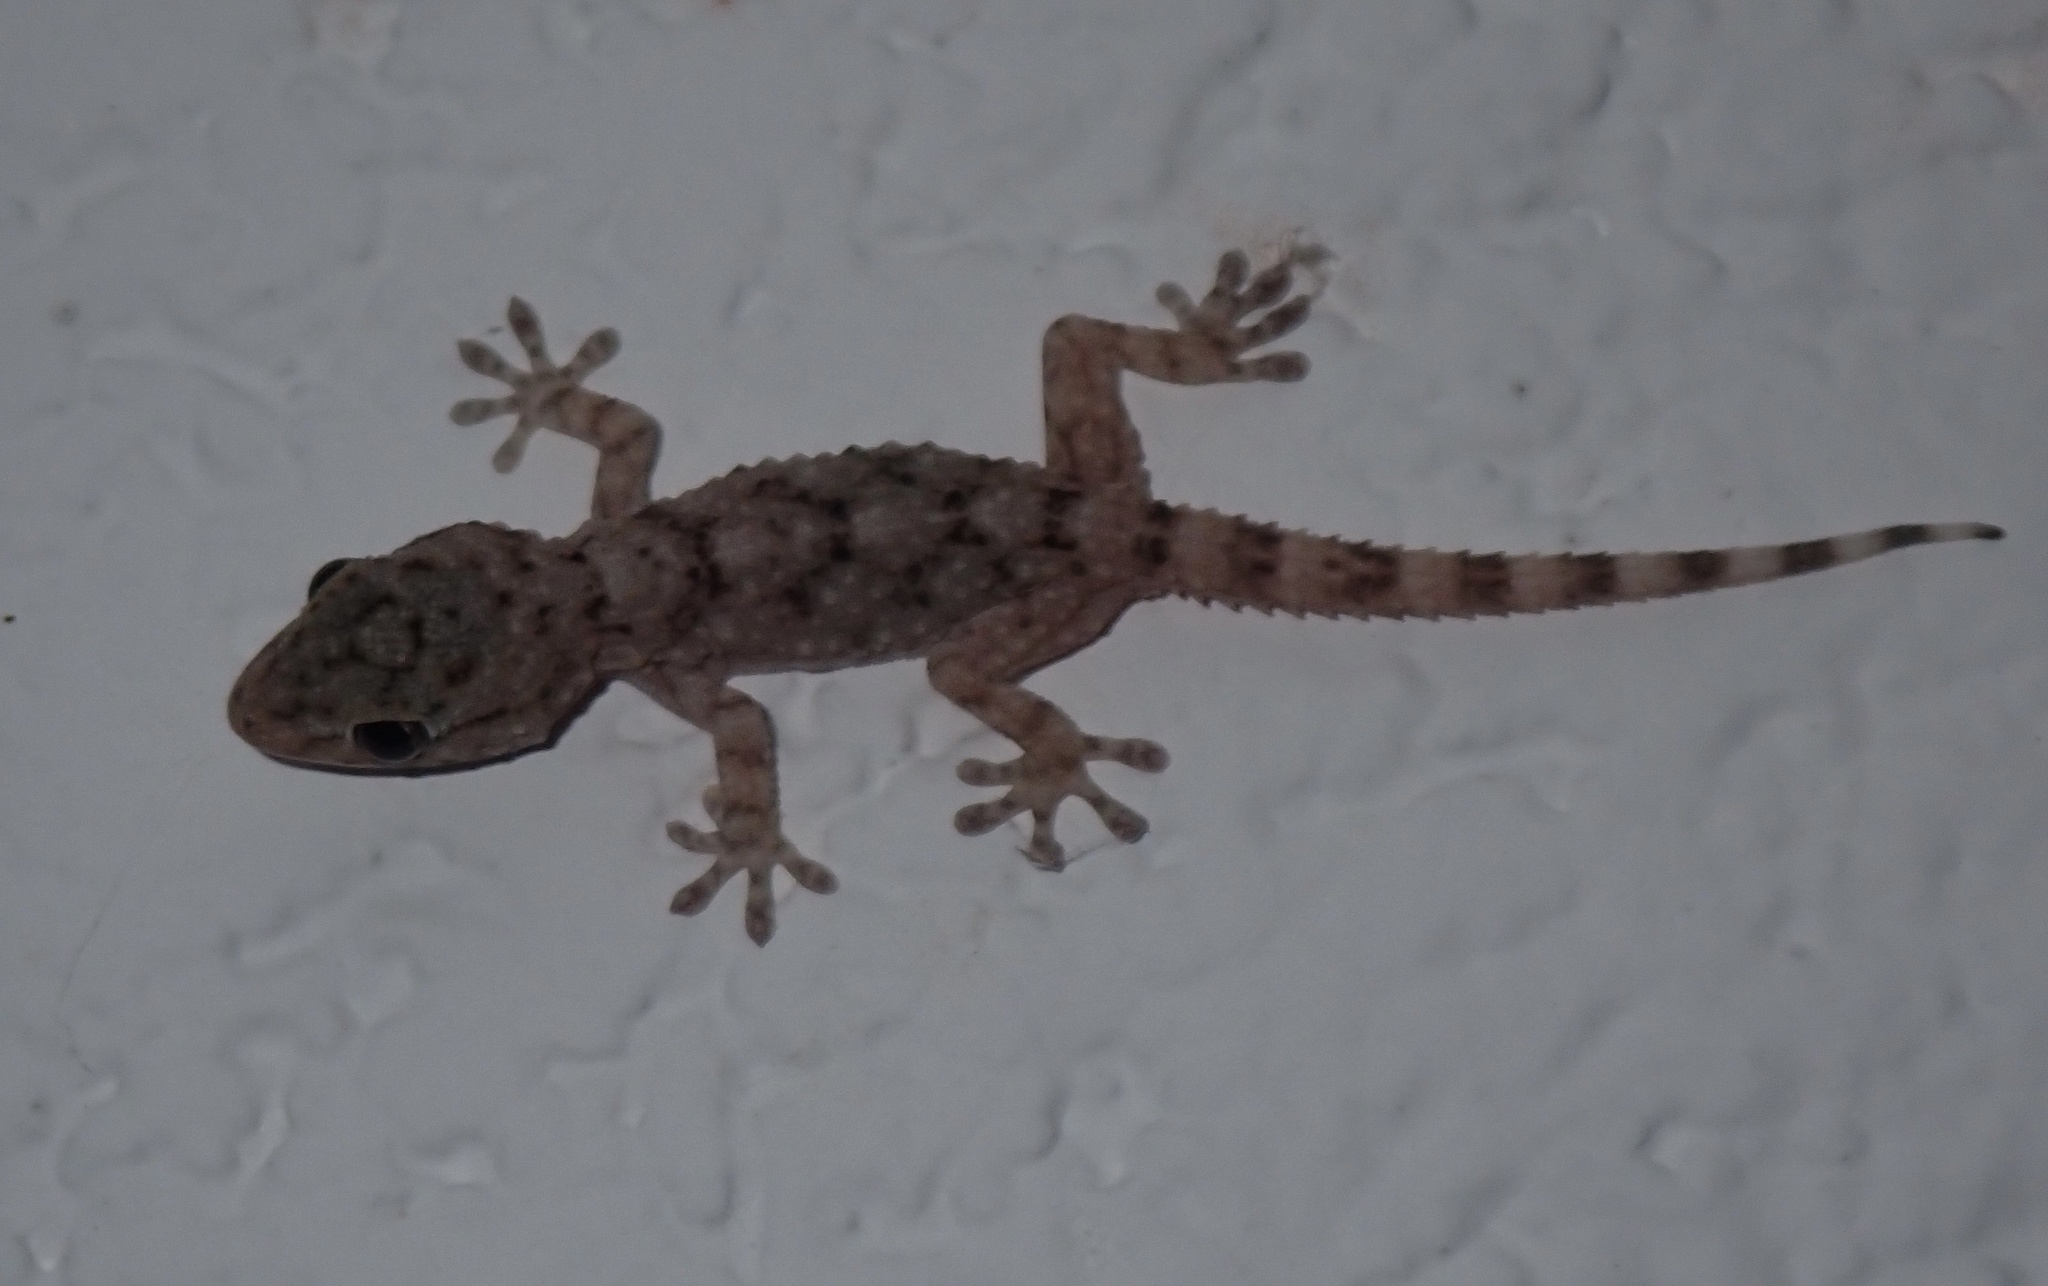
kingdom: Animalia
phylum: Chordata
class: Squamata
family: Phyllodactylidae
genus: Tarentola
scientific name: Tarentola mauritanica
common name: Moorish gecko
